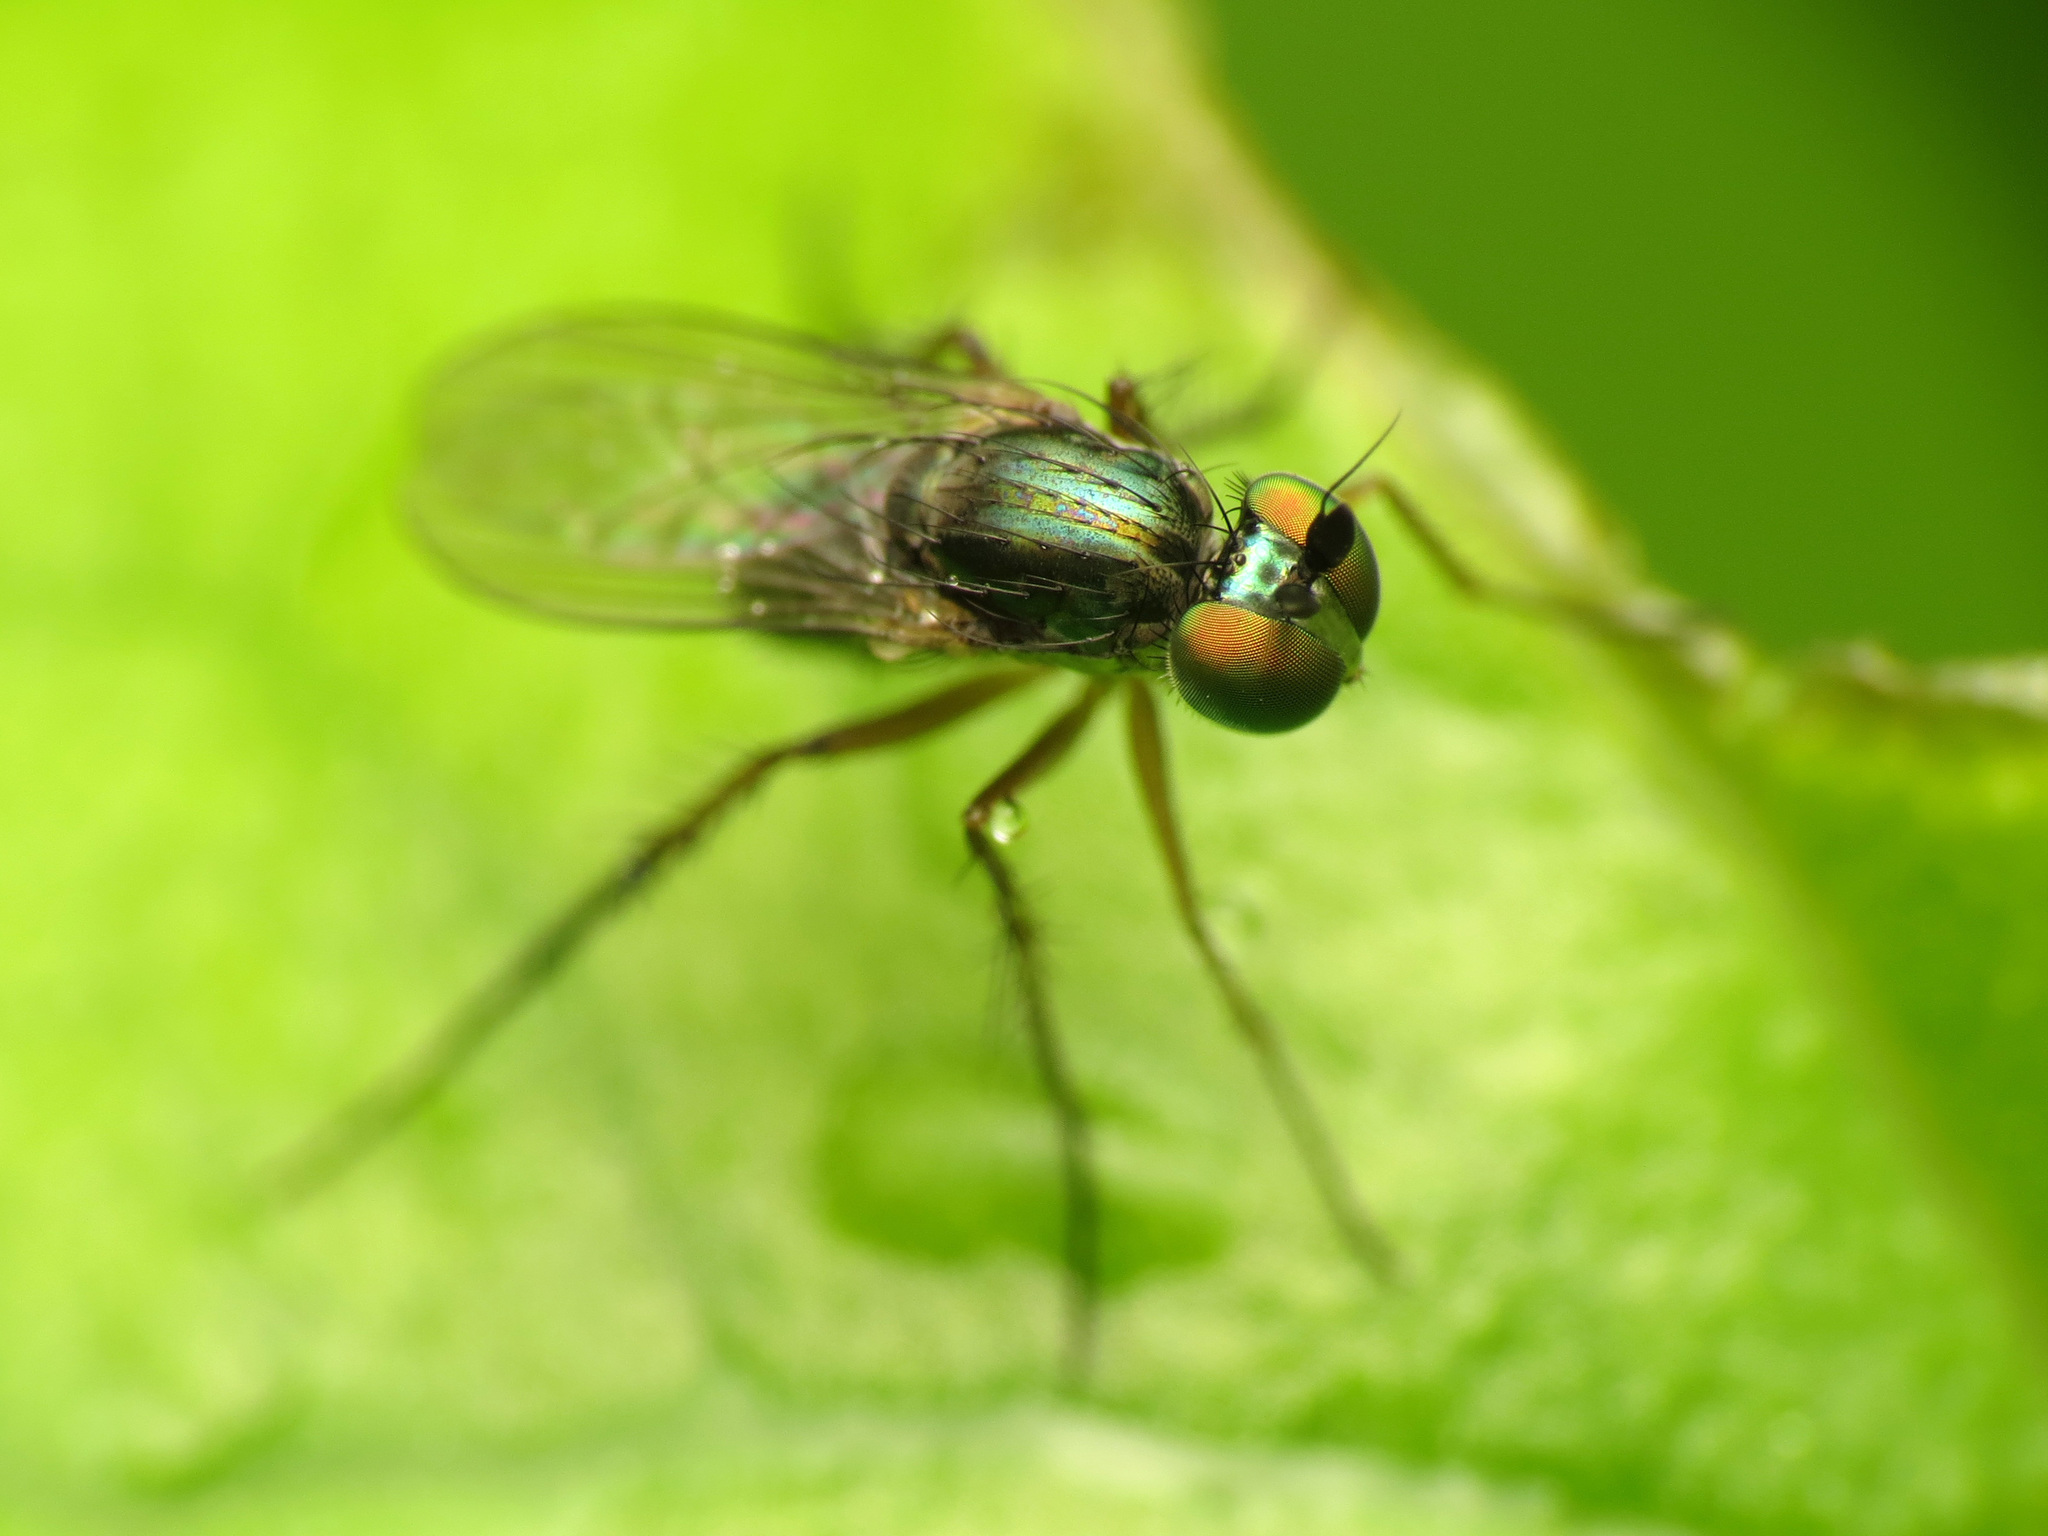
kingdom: Animalia
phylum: Arthropoda
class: Insecta
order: Diptera
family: Dolichopodidae
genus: Dolichopus
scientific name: Dolichopus comatus
